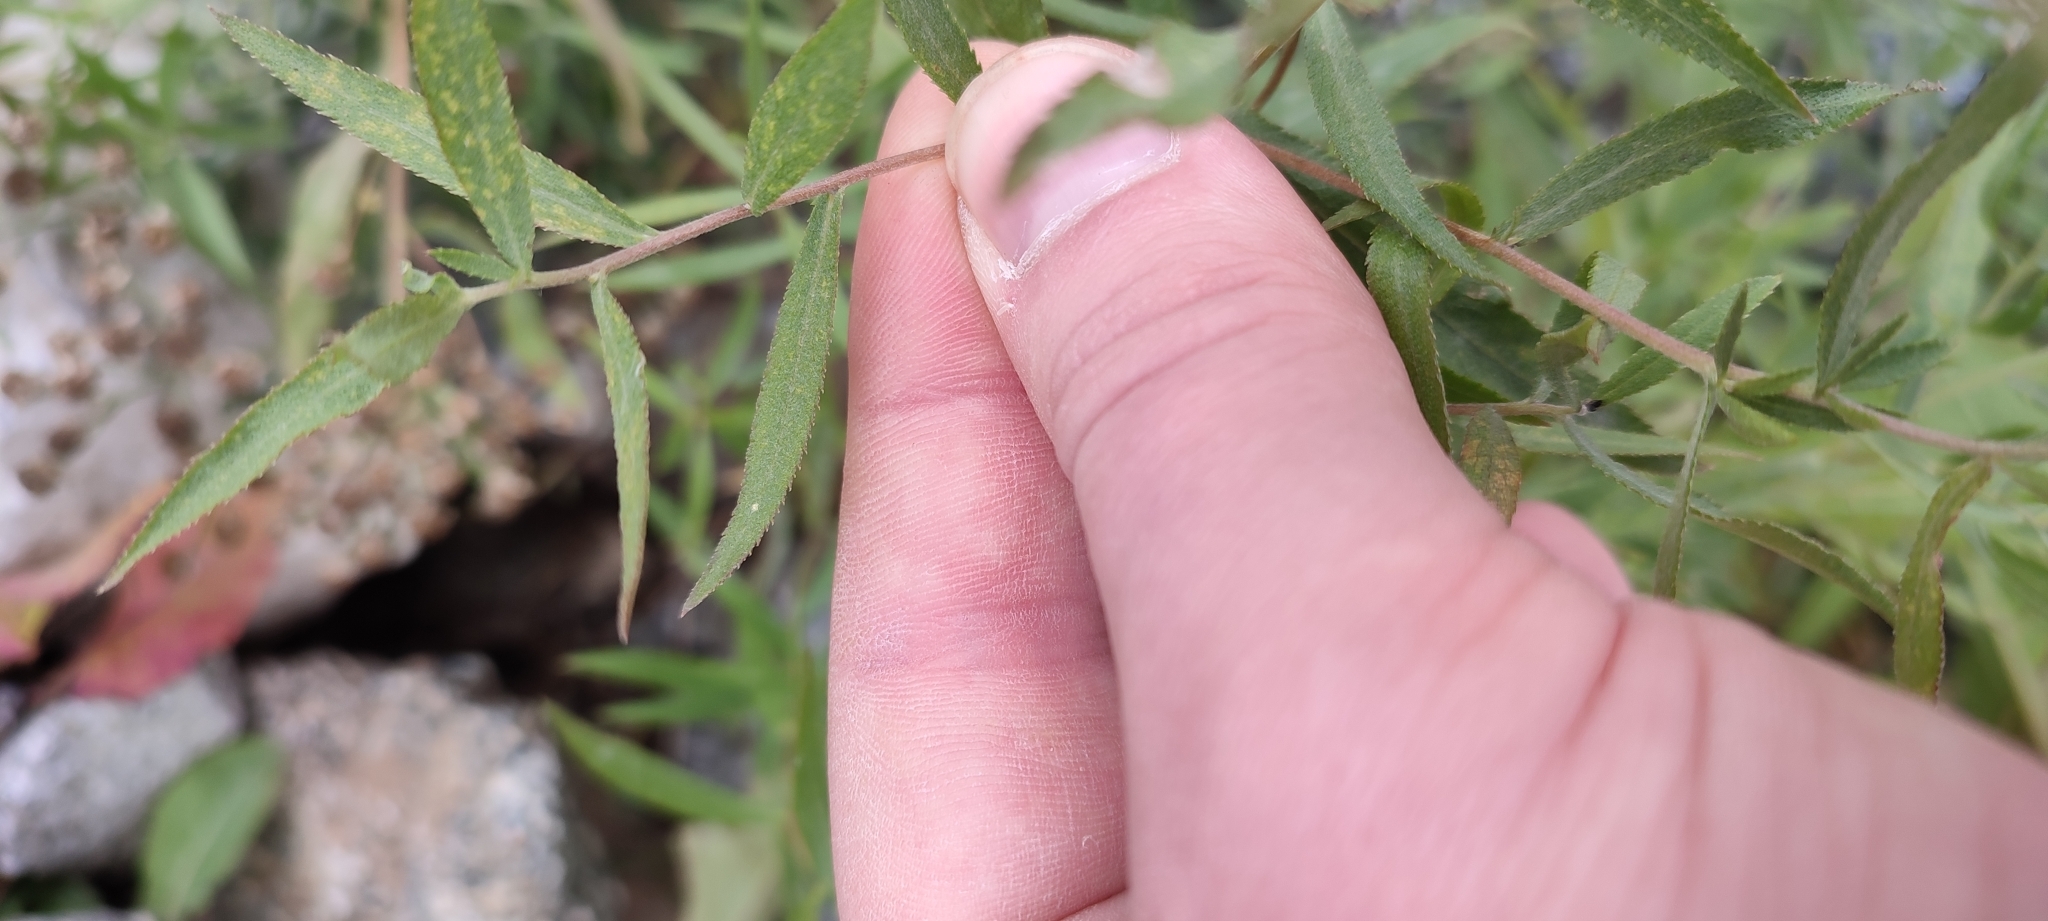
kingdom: Plantae
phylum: Tracheophyta
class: Magnoliopsida
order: Asterales
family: Asteraceae
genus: Achillea
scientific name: Achillea salicifolia
